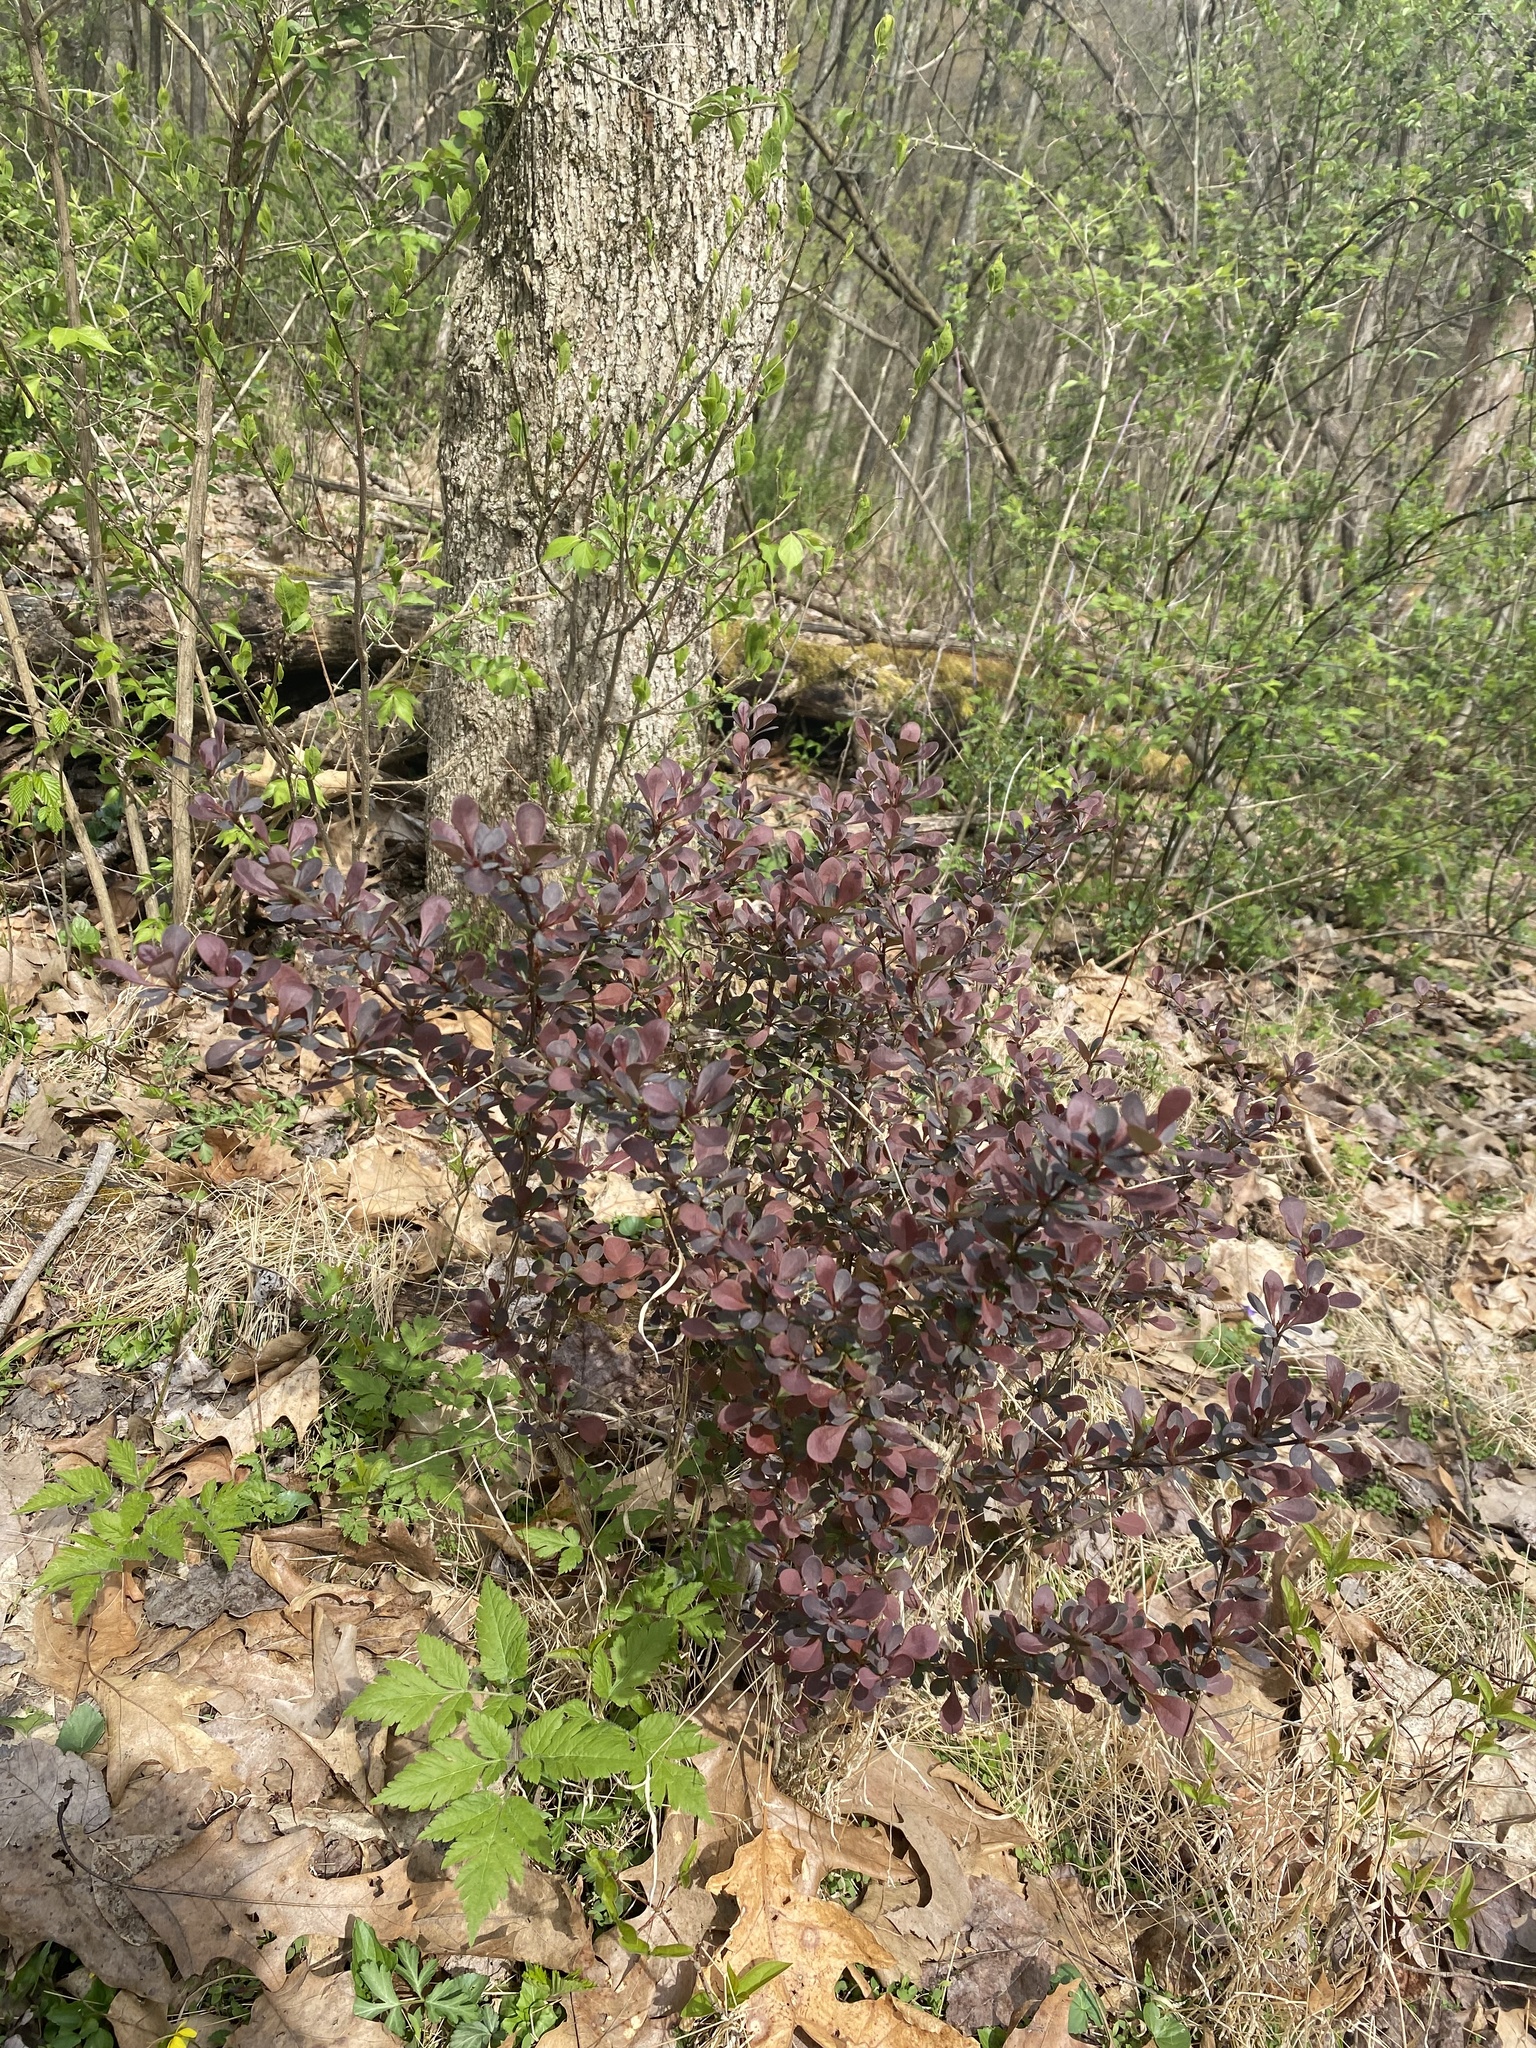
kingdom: Plantae
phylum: Tracheophyta
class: Magnoliopsida
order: Ranunculales
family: Berberidaceae
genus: Berberis
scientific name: Berberis thunbergii
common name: Japanese barberry
